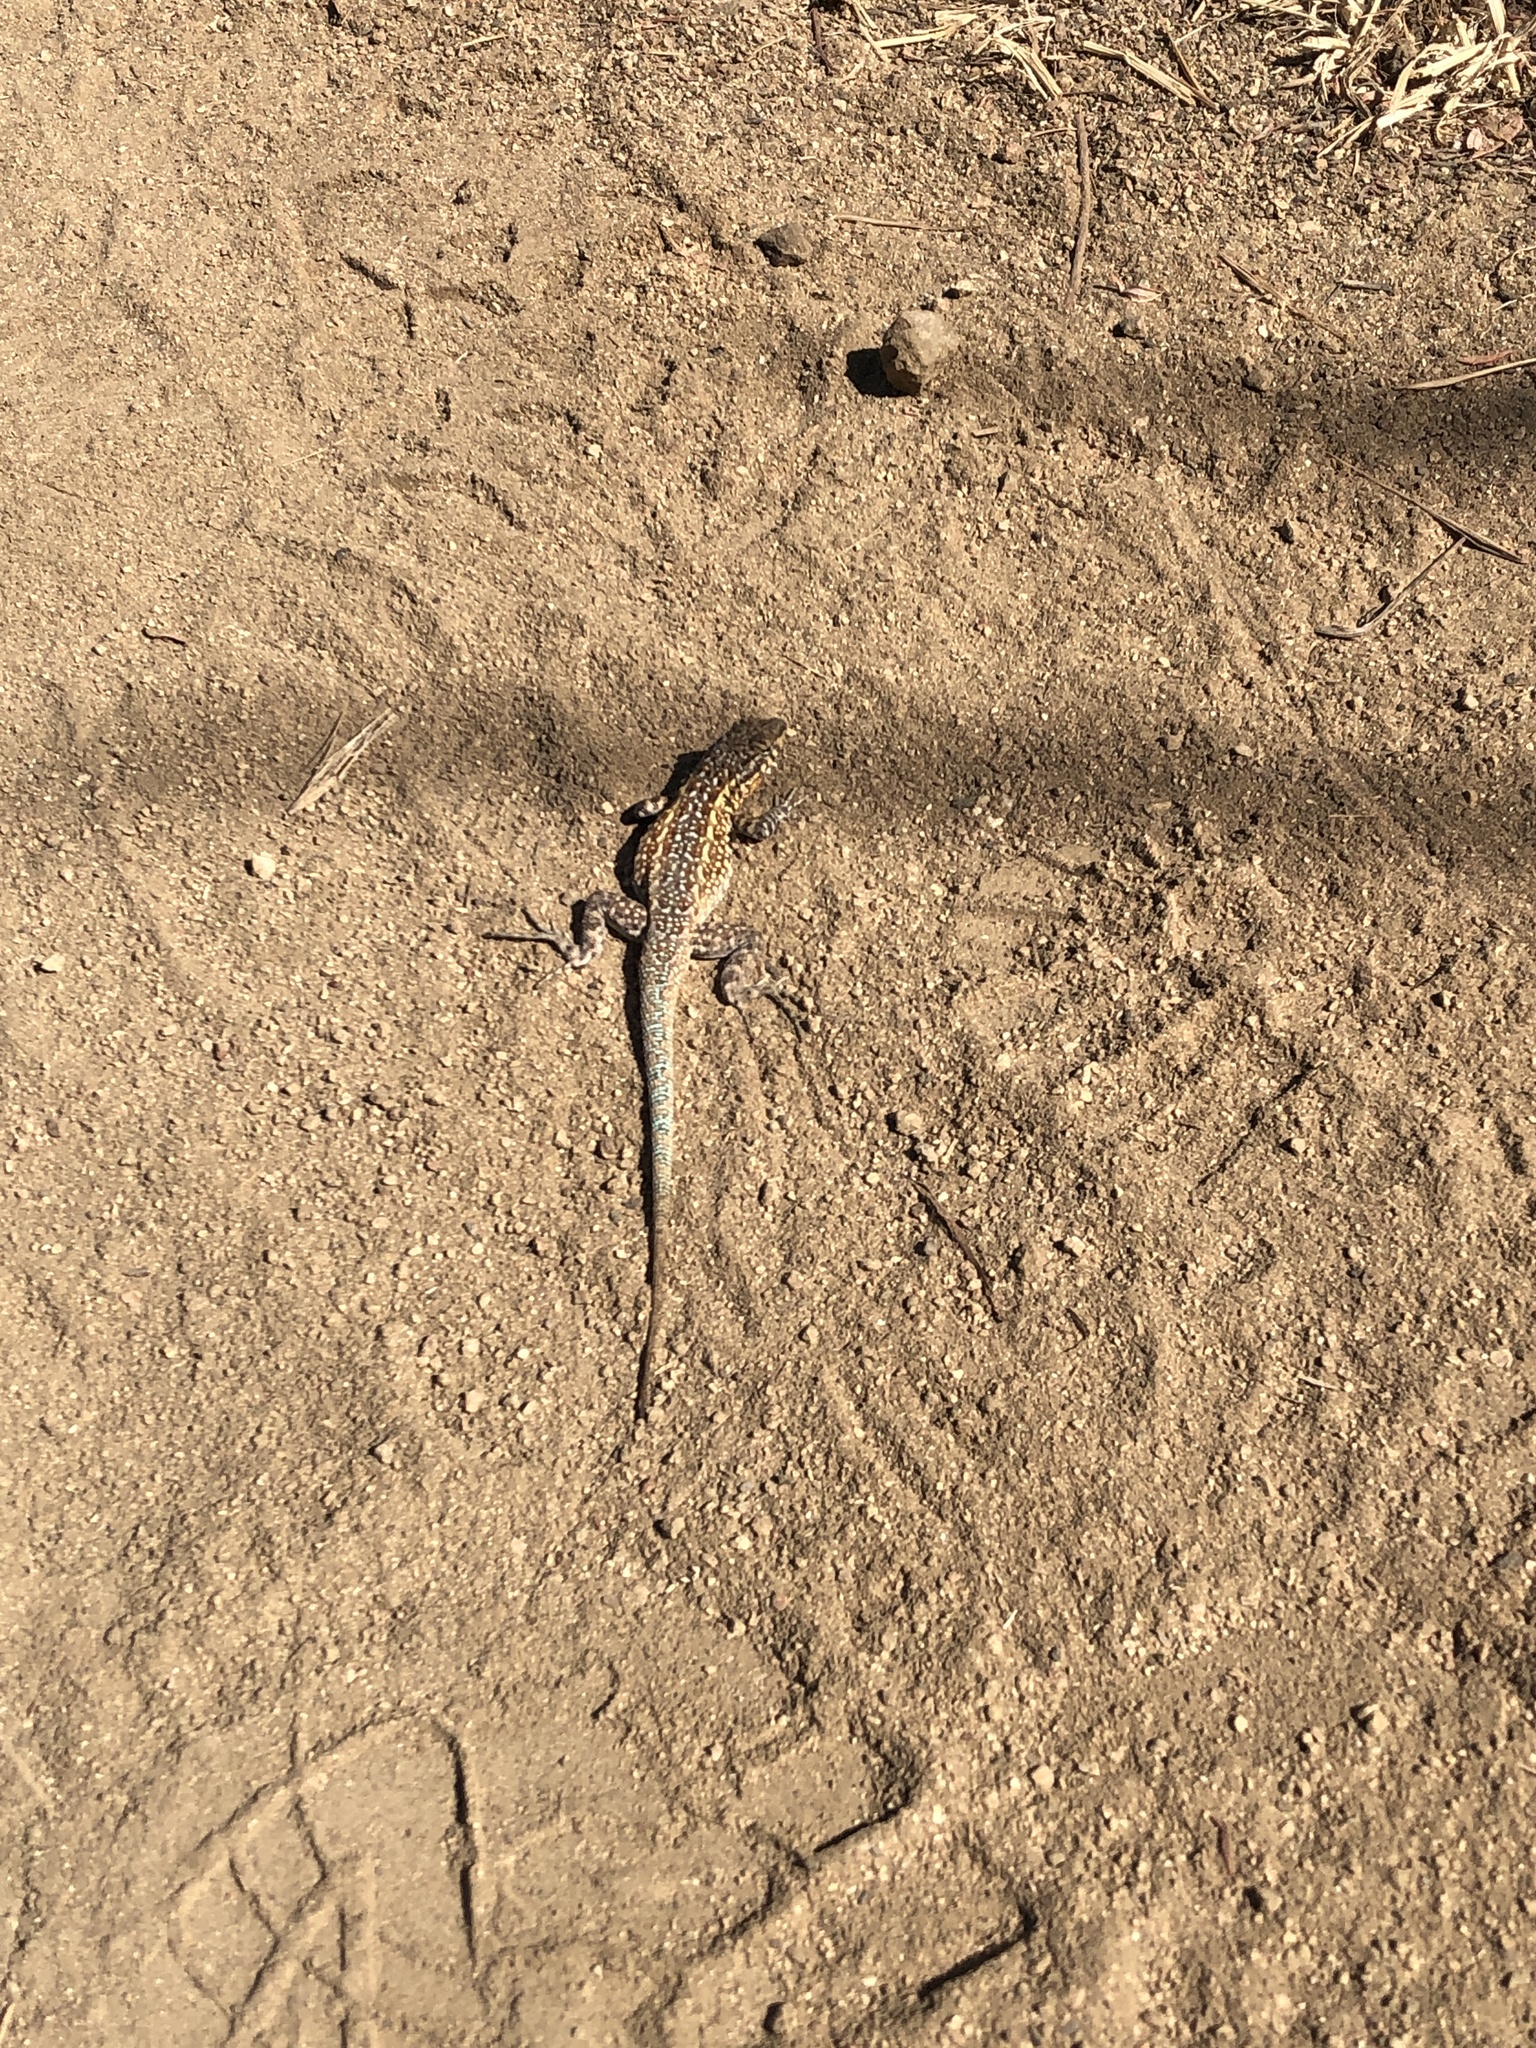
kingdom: Animalia
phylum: Chordata
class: Squamata
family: Phrynosomatidae
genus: Uta
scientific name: Uta stansburiana
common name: Side-blotched lizard
